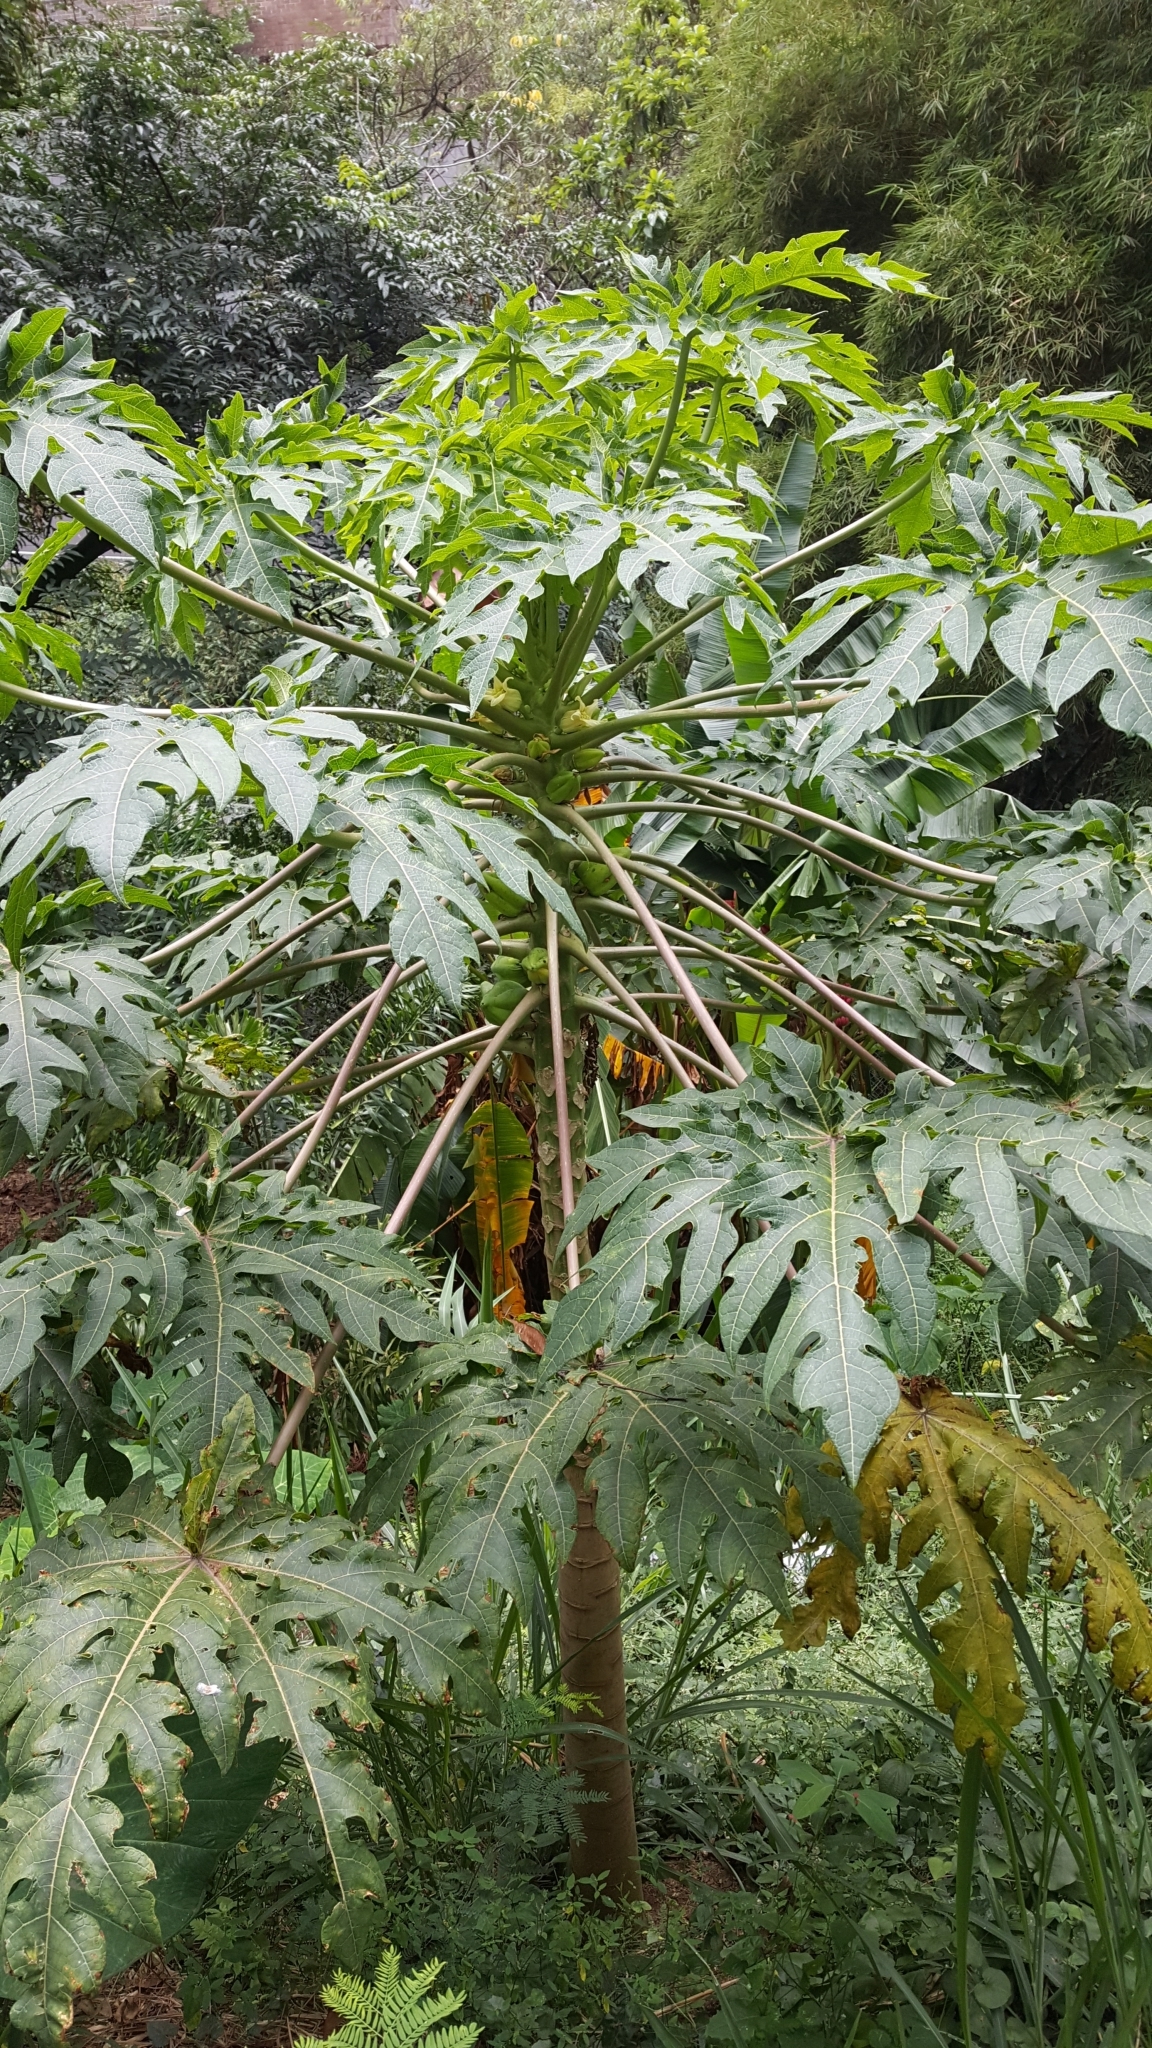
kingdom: Plantae
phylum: Tracheophyta
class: Magnoliopsida
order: Brassicales
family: Caricaceae
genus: Carica
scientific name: Carica papaya
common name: Papaya
